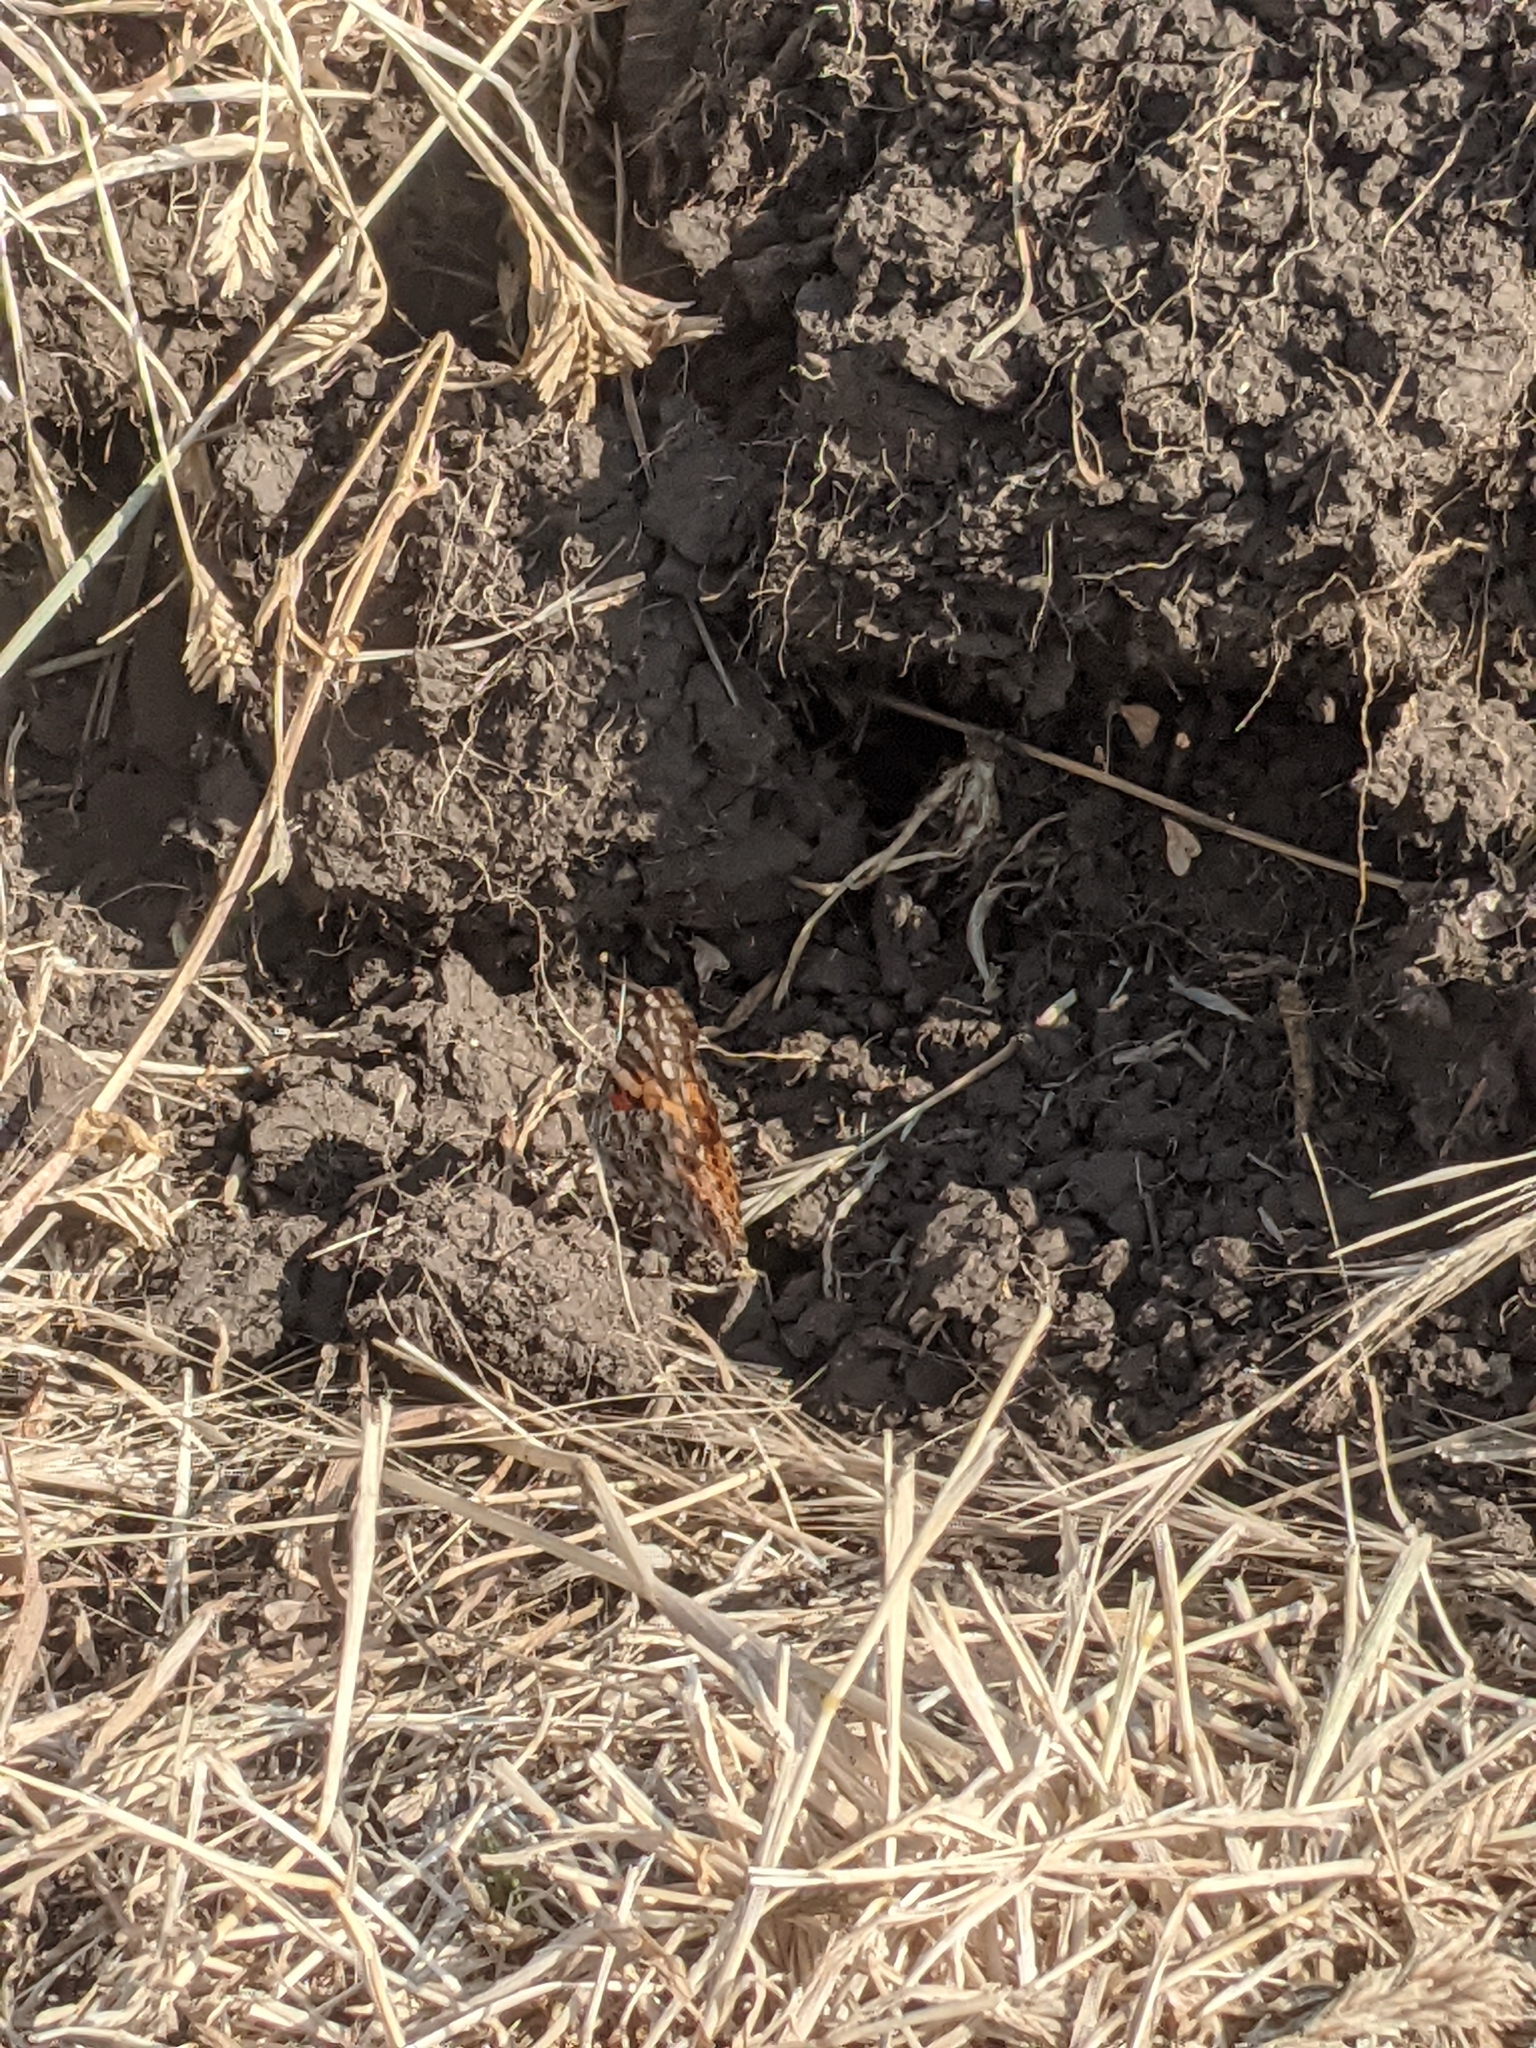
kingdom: Animalia
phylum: Arthropoda
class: Insecta
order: Lepidoptera
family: Nymphalidae
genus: Vanessa
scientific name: Vanessa cardui
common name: Painted lady
